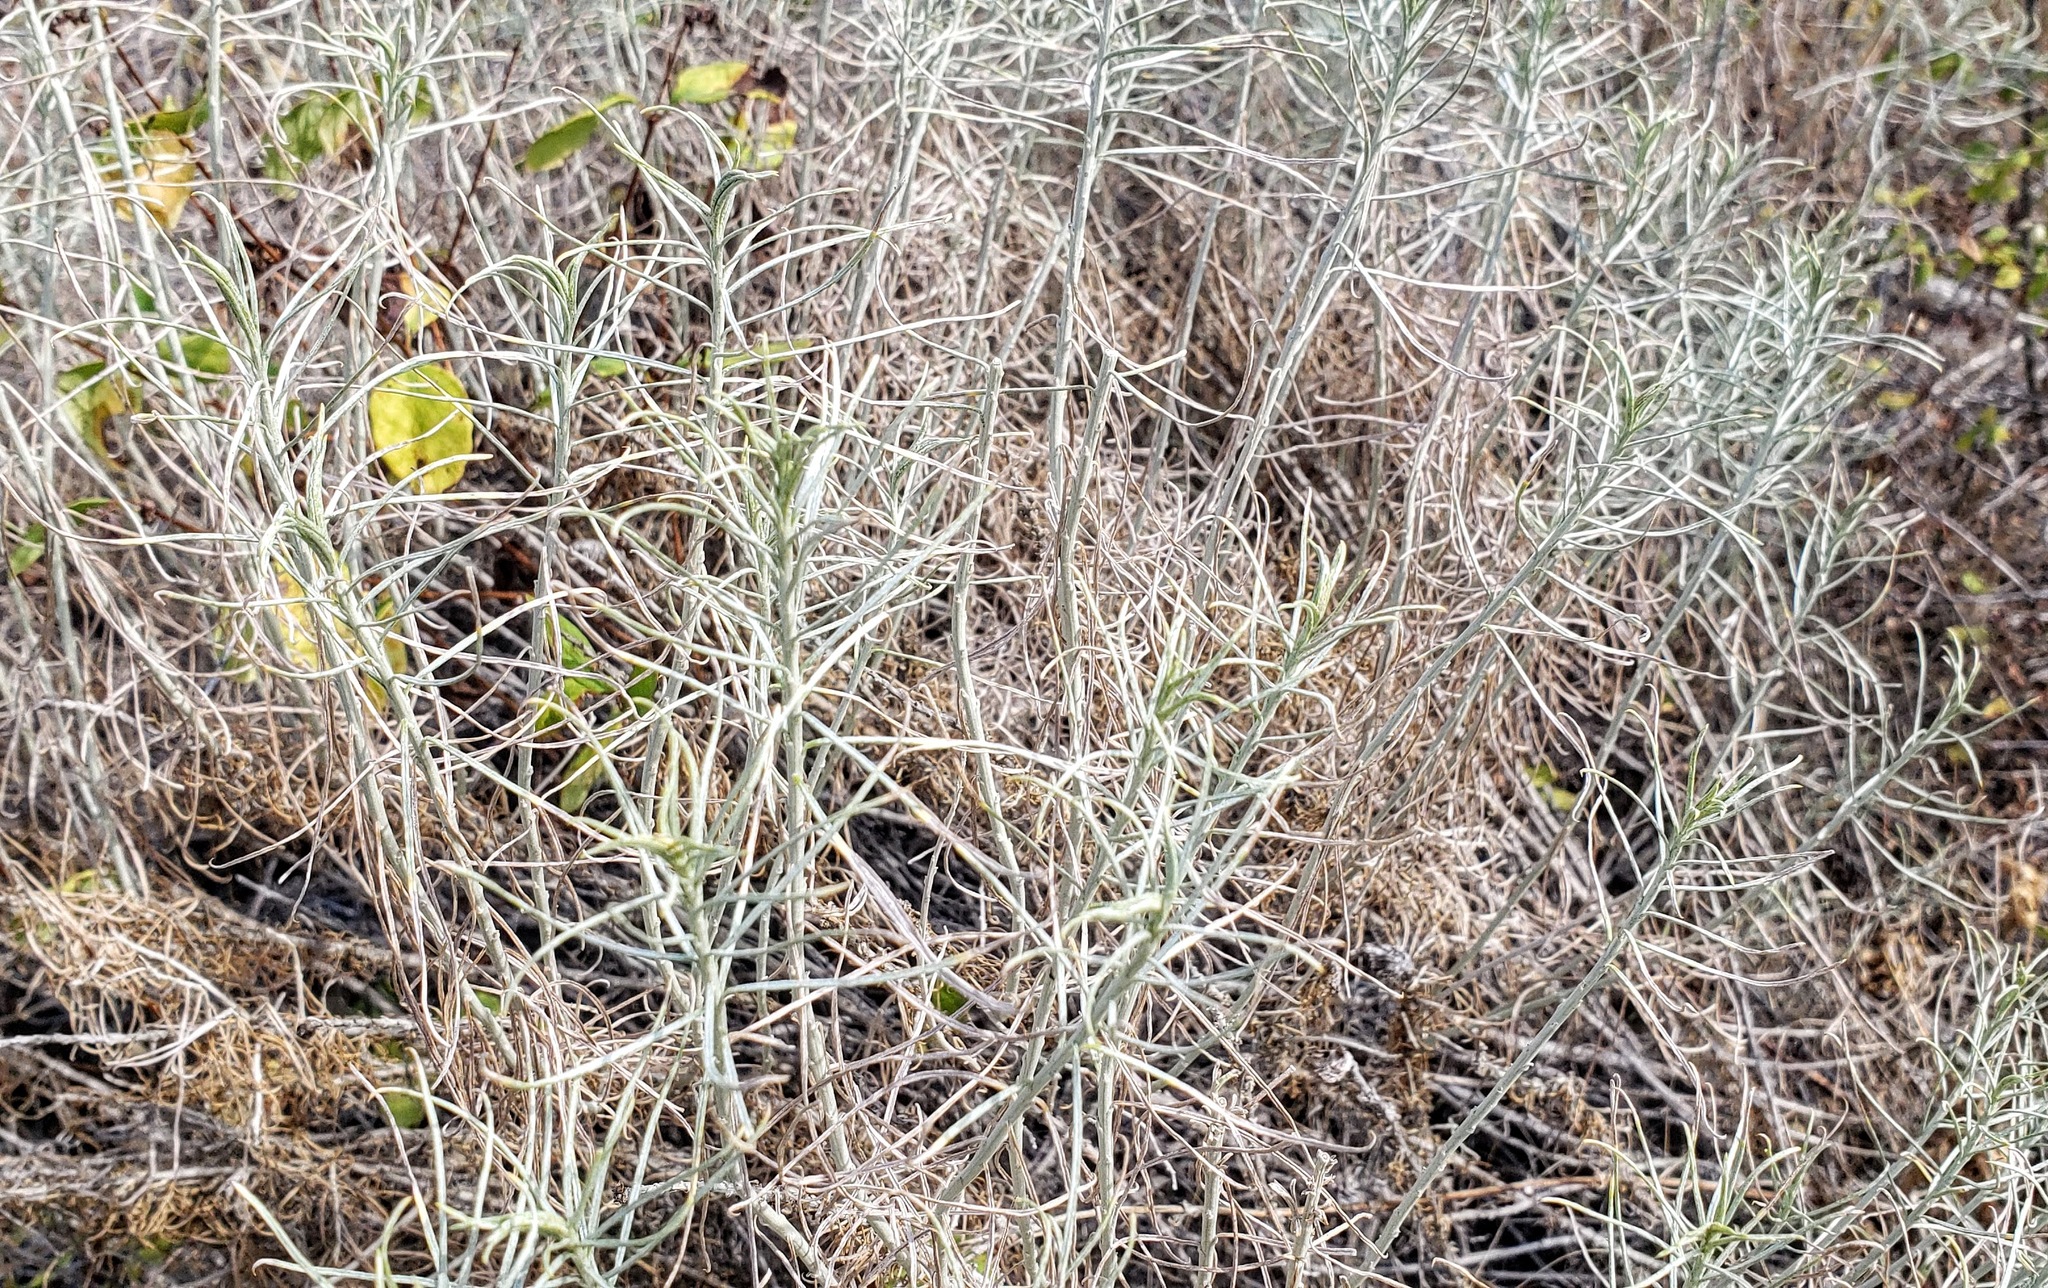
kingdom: Plantae
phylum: Tracheophyta
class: Magnoliopsida
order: Asterales
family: Asteraceae
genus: Ericameria
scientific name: Ericameria nauseosa
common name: Rubber rabbitbrush
